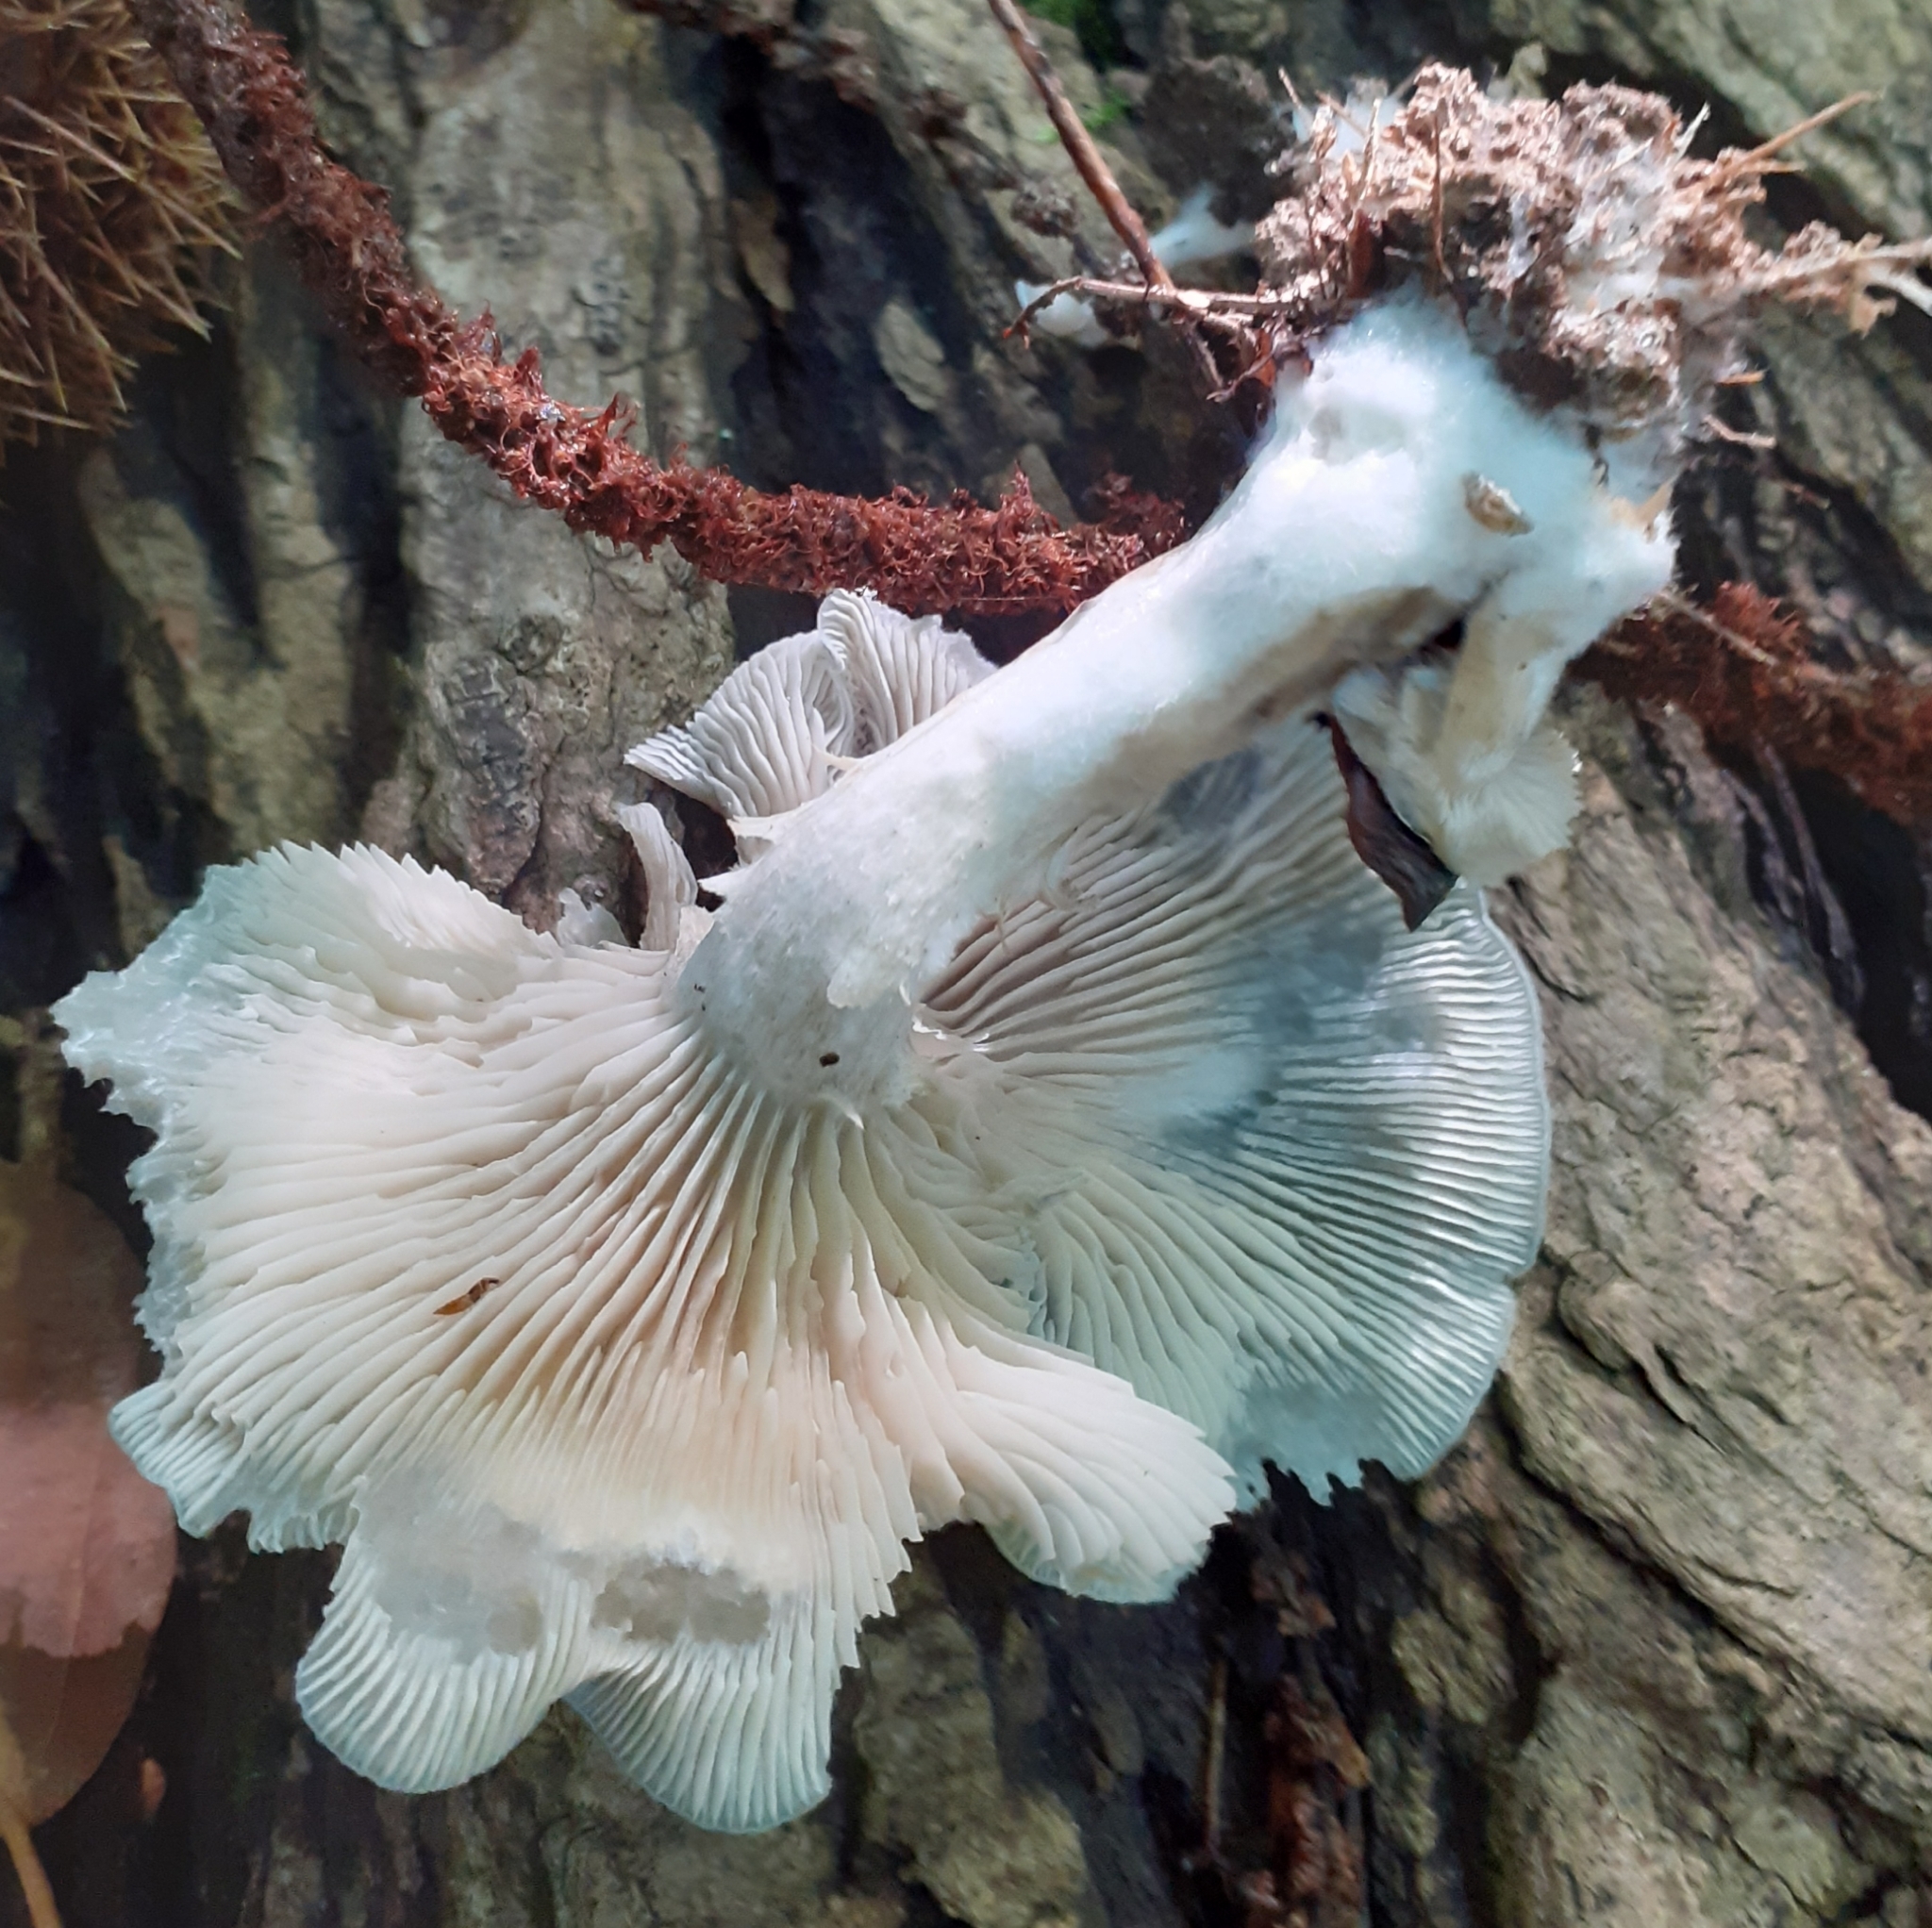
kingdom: Fungi
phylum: Basidiomycota
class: Agaricomycetes
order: Agaricales
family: Tricholomataceae
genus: Collybia
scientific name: Collybia
